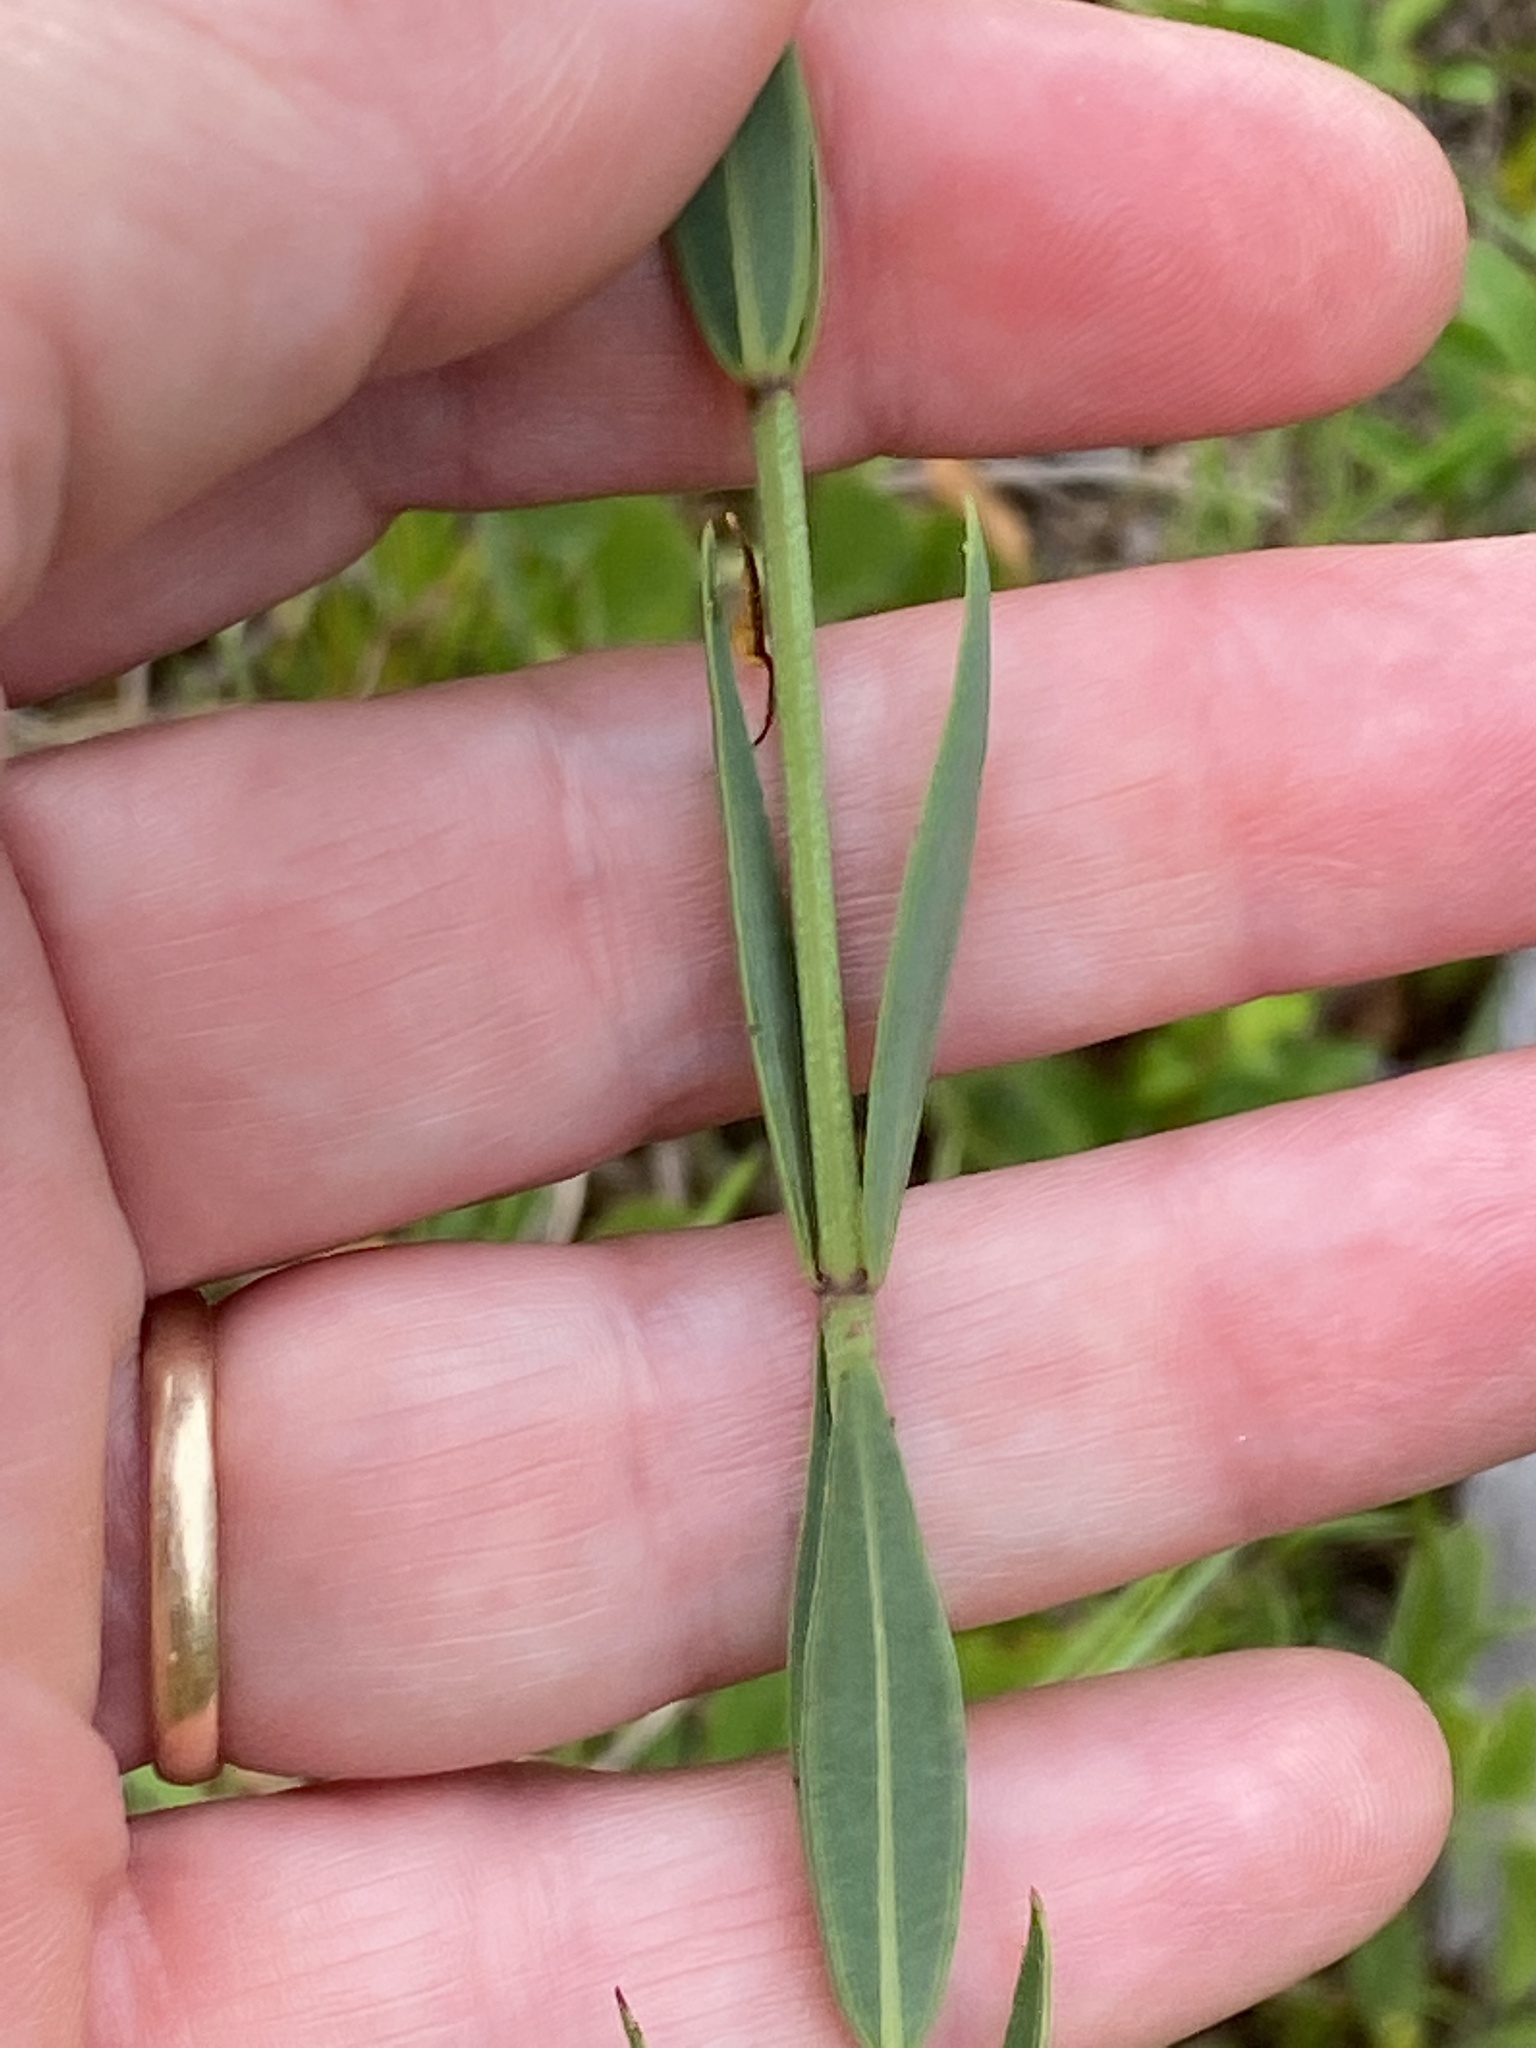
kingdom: Plantae
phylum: Tracheophyta
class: Magnoliopsida
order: Myrtales
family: Melastomataceae
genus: Rhexia
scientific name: Rhexia alifanus
